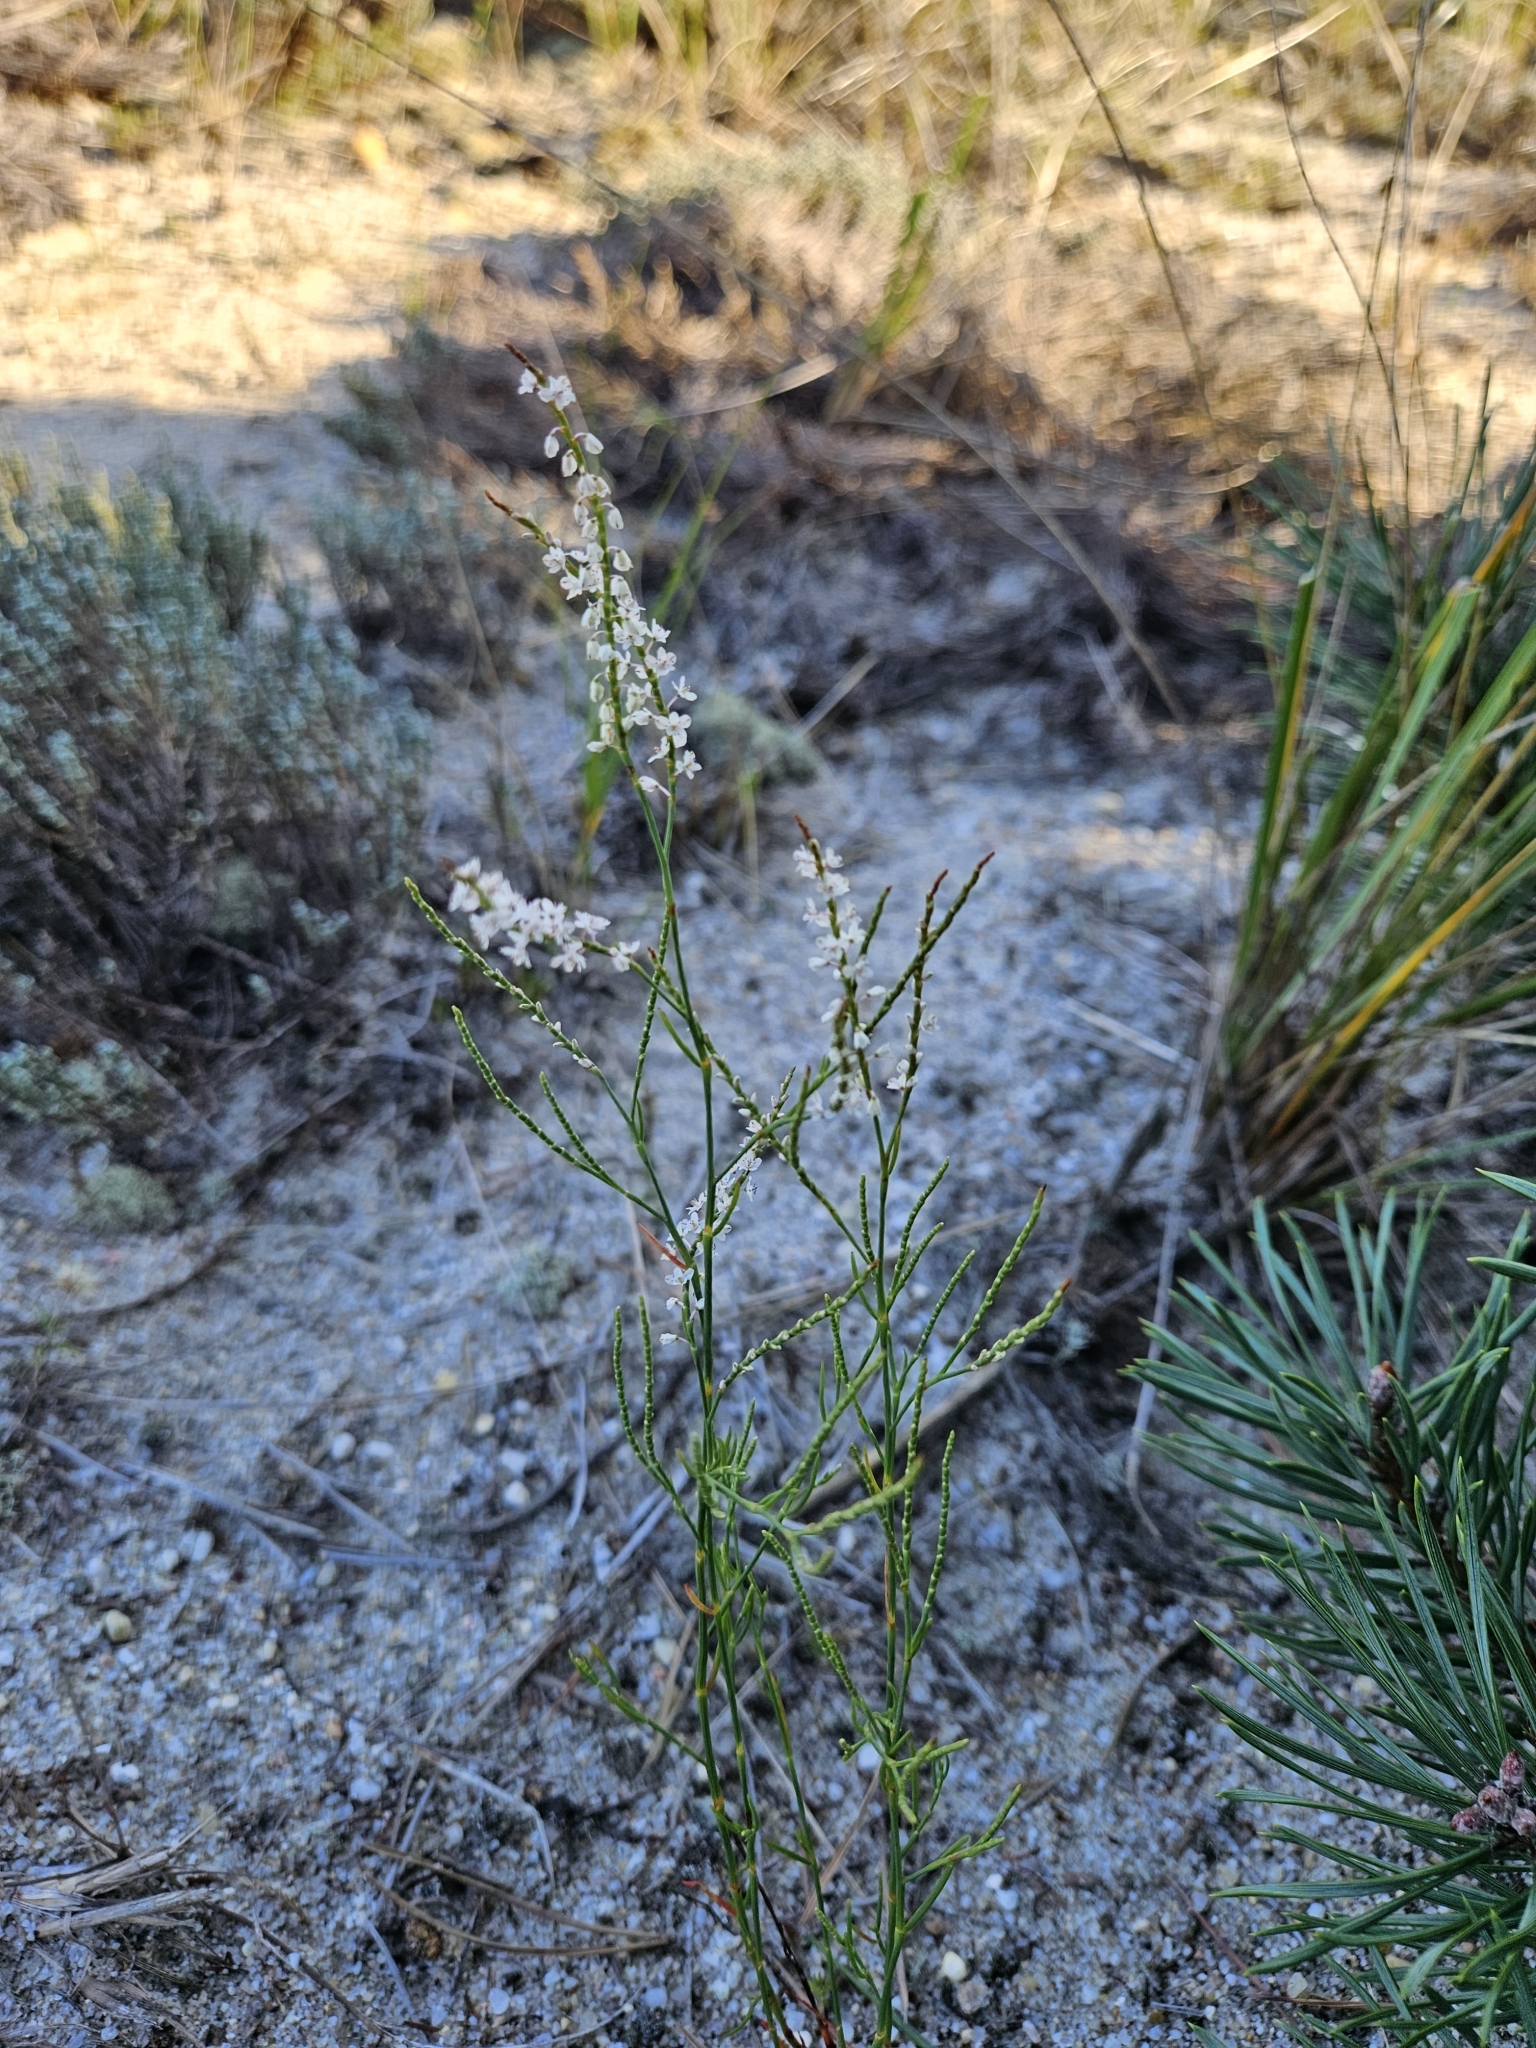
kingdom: Plantae
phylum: Tracheophyta
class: Magnoliopsida
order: Caryophyllales
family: Polygonaceae
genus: Polygonella
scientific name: Polygonella articulata
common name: Coastal jointweed
